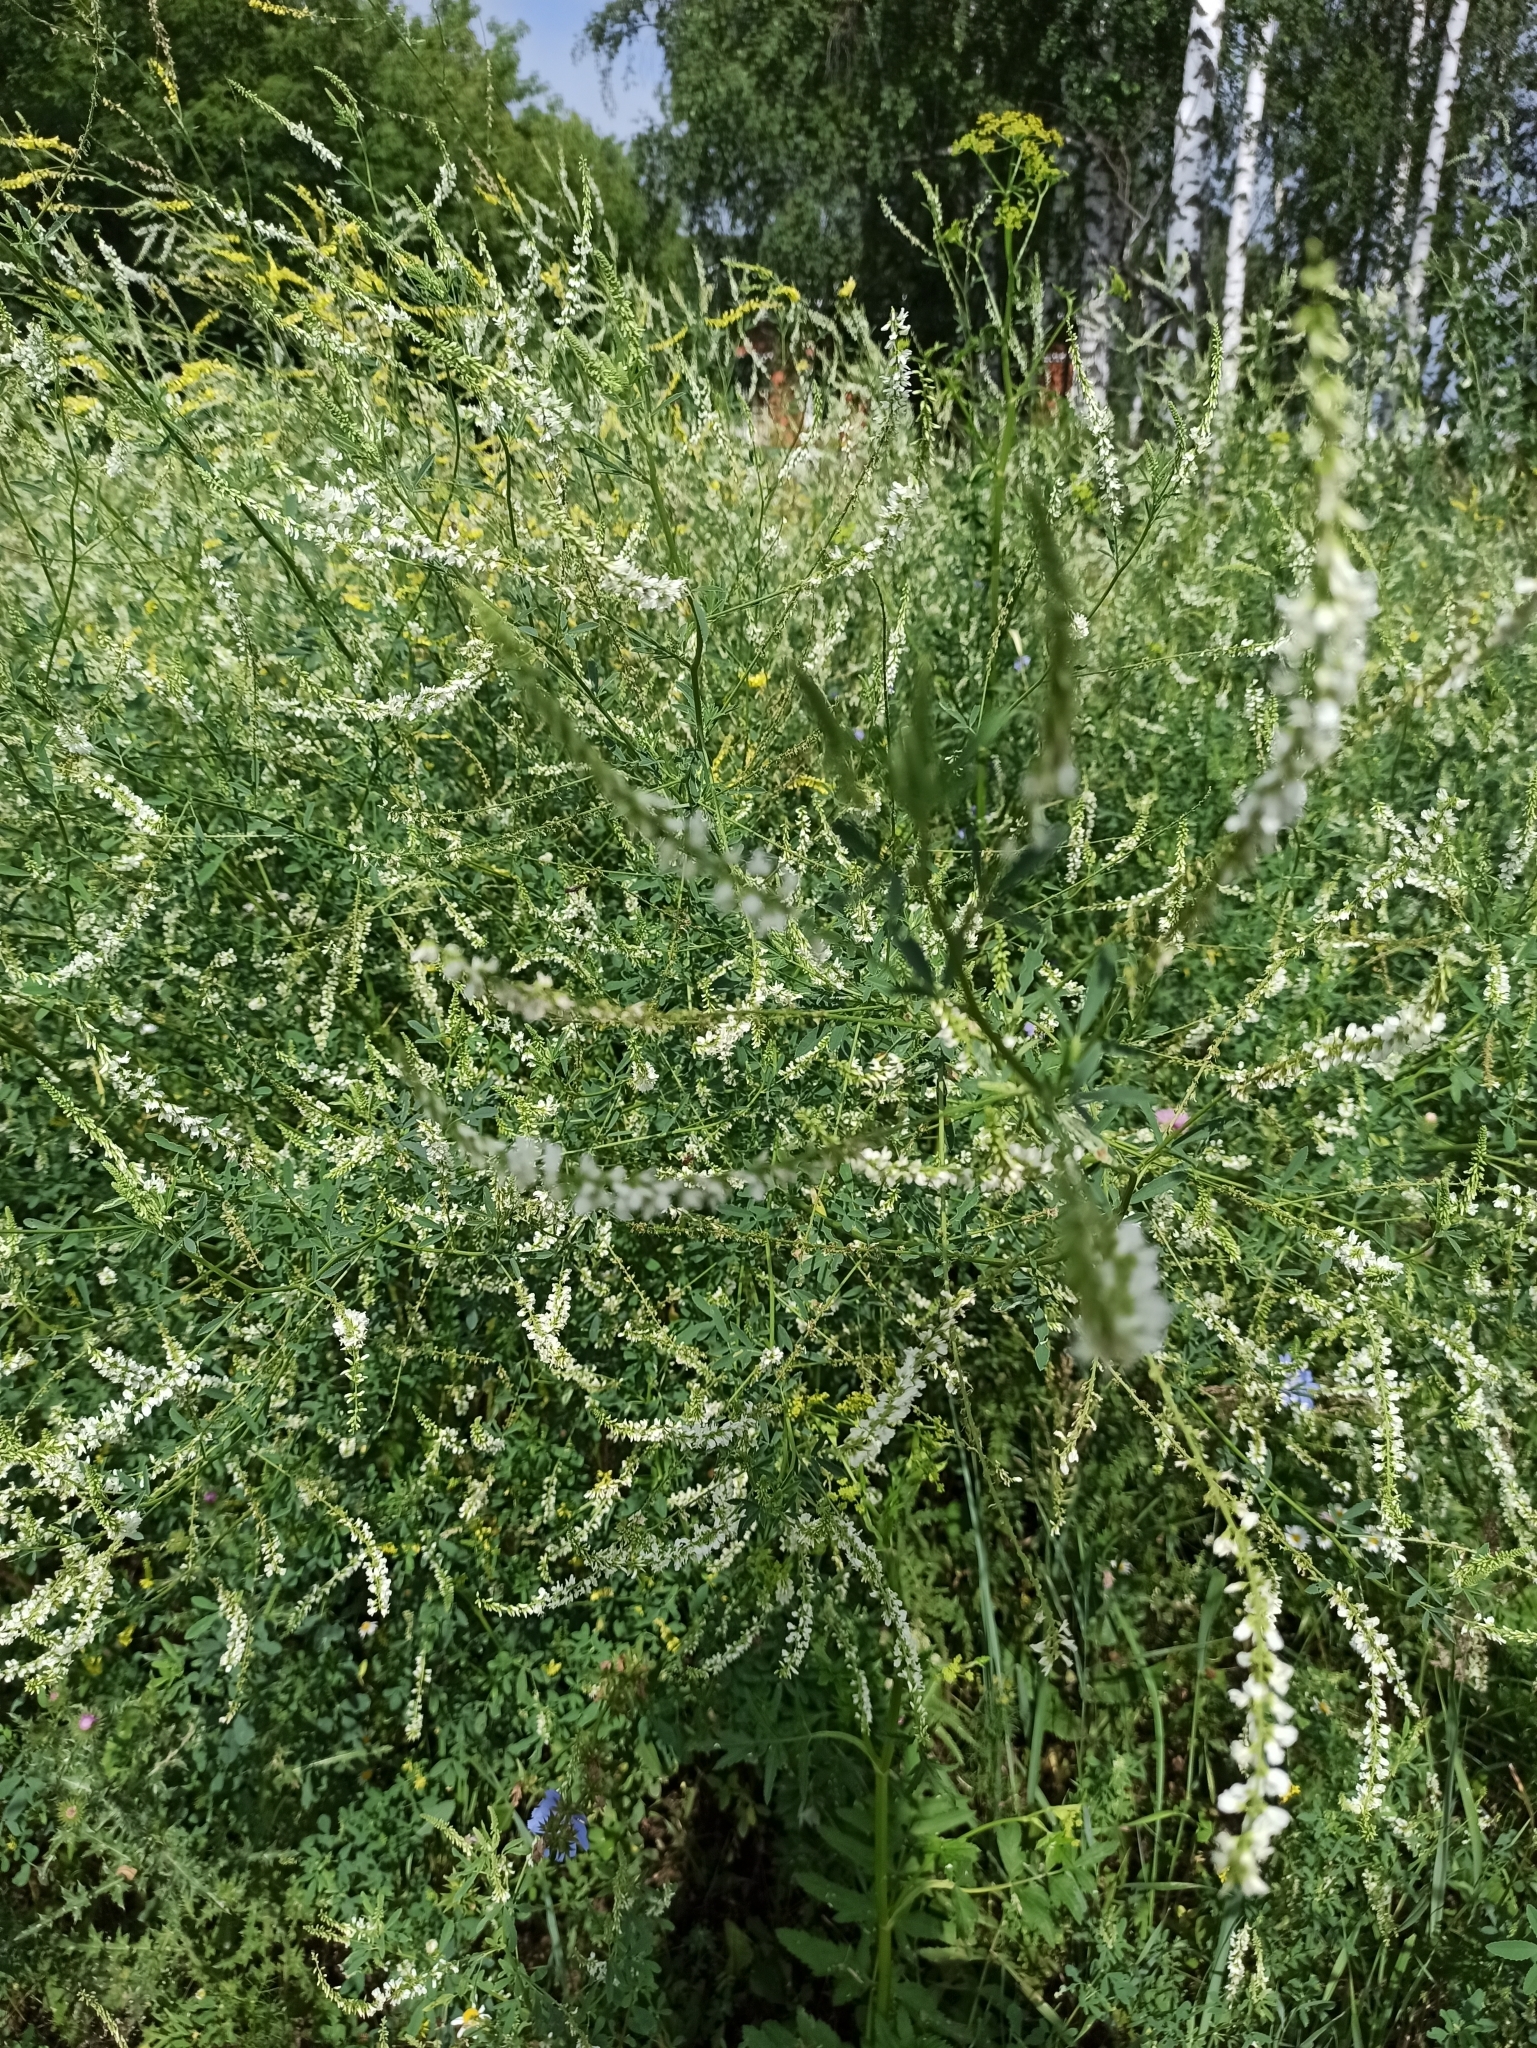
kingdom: Plantae
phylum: Tracheophyta
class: Magnoliopsida
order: Fabales
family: Fabaceae
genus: Melilotus
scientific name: Melilotus albus
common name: White melilot
